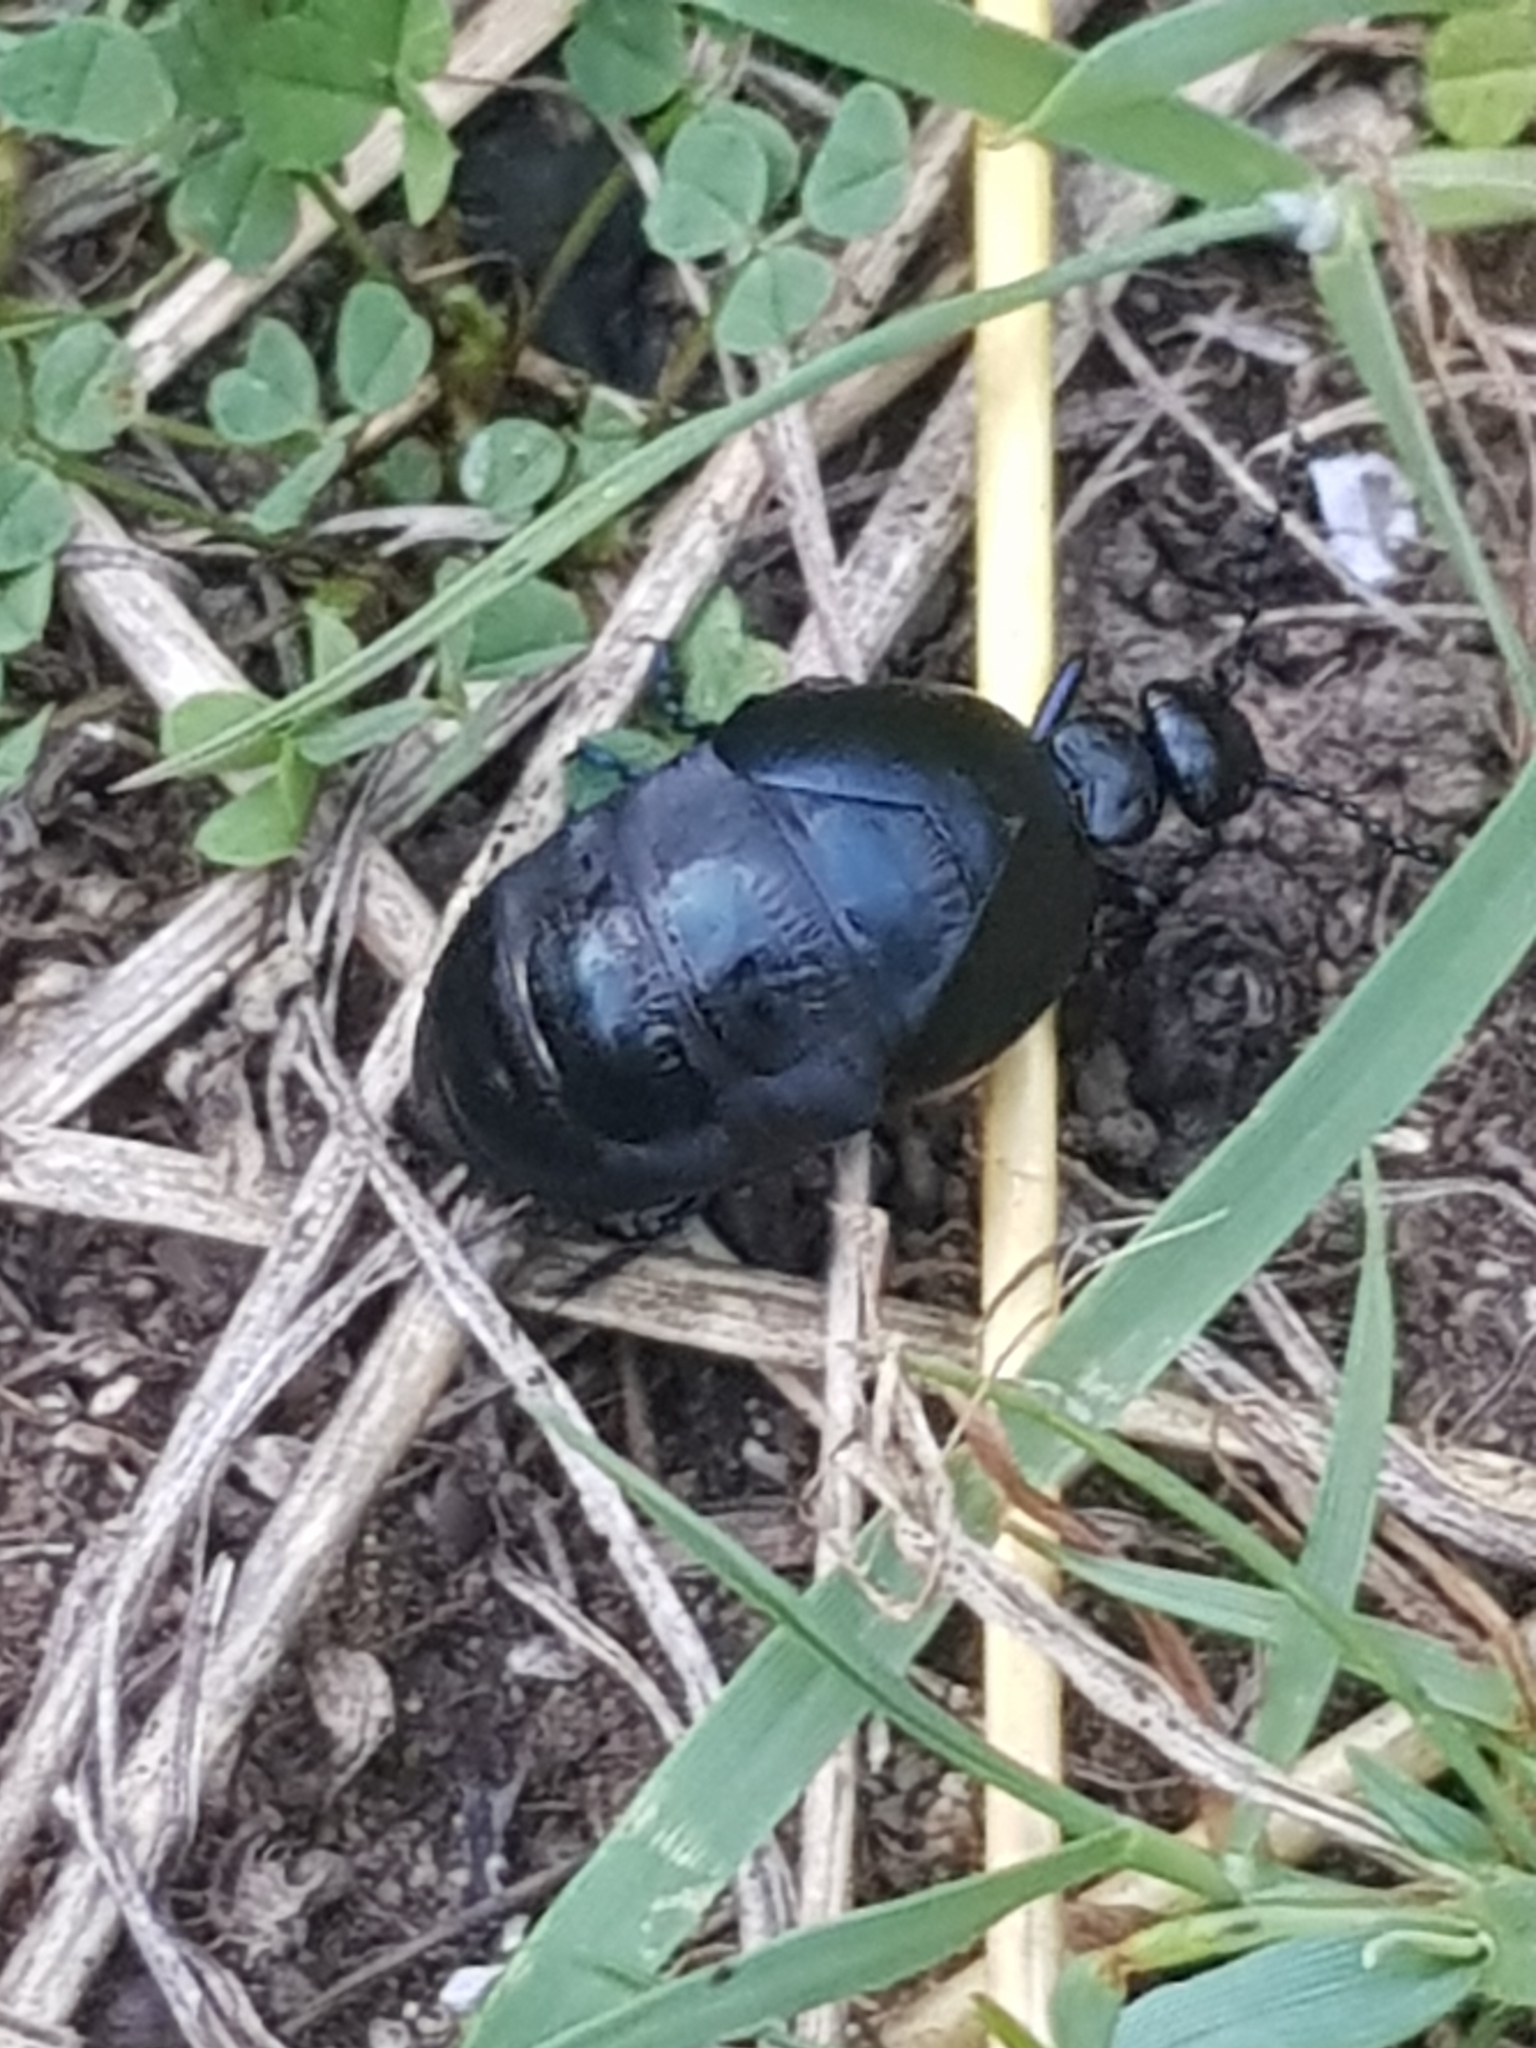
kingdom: Animalia
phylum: Arthropoda
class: Insecta
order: Coleoptera
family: Meloidae
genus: Meloe
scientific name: Meloe autumnalis
